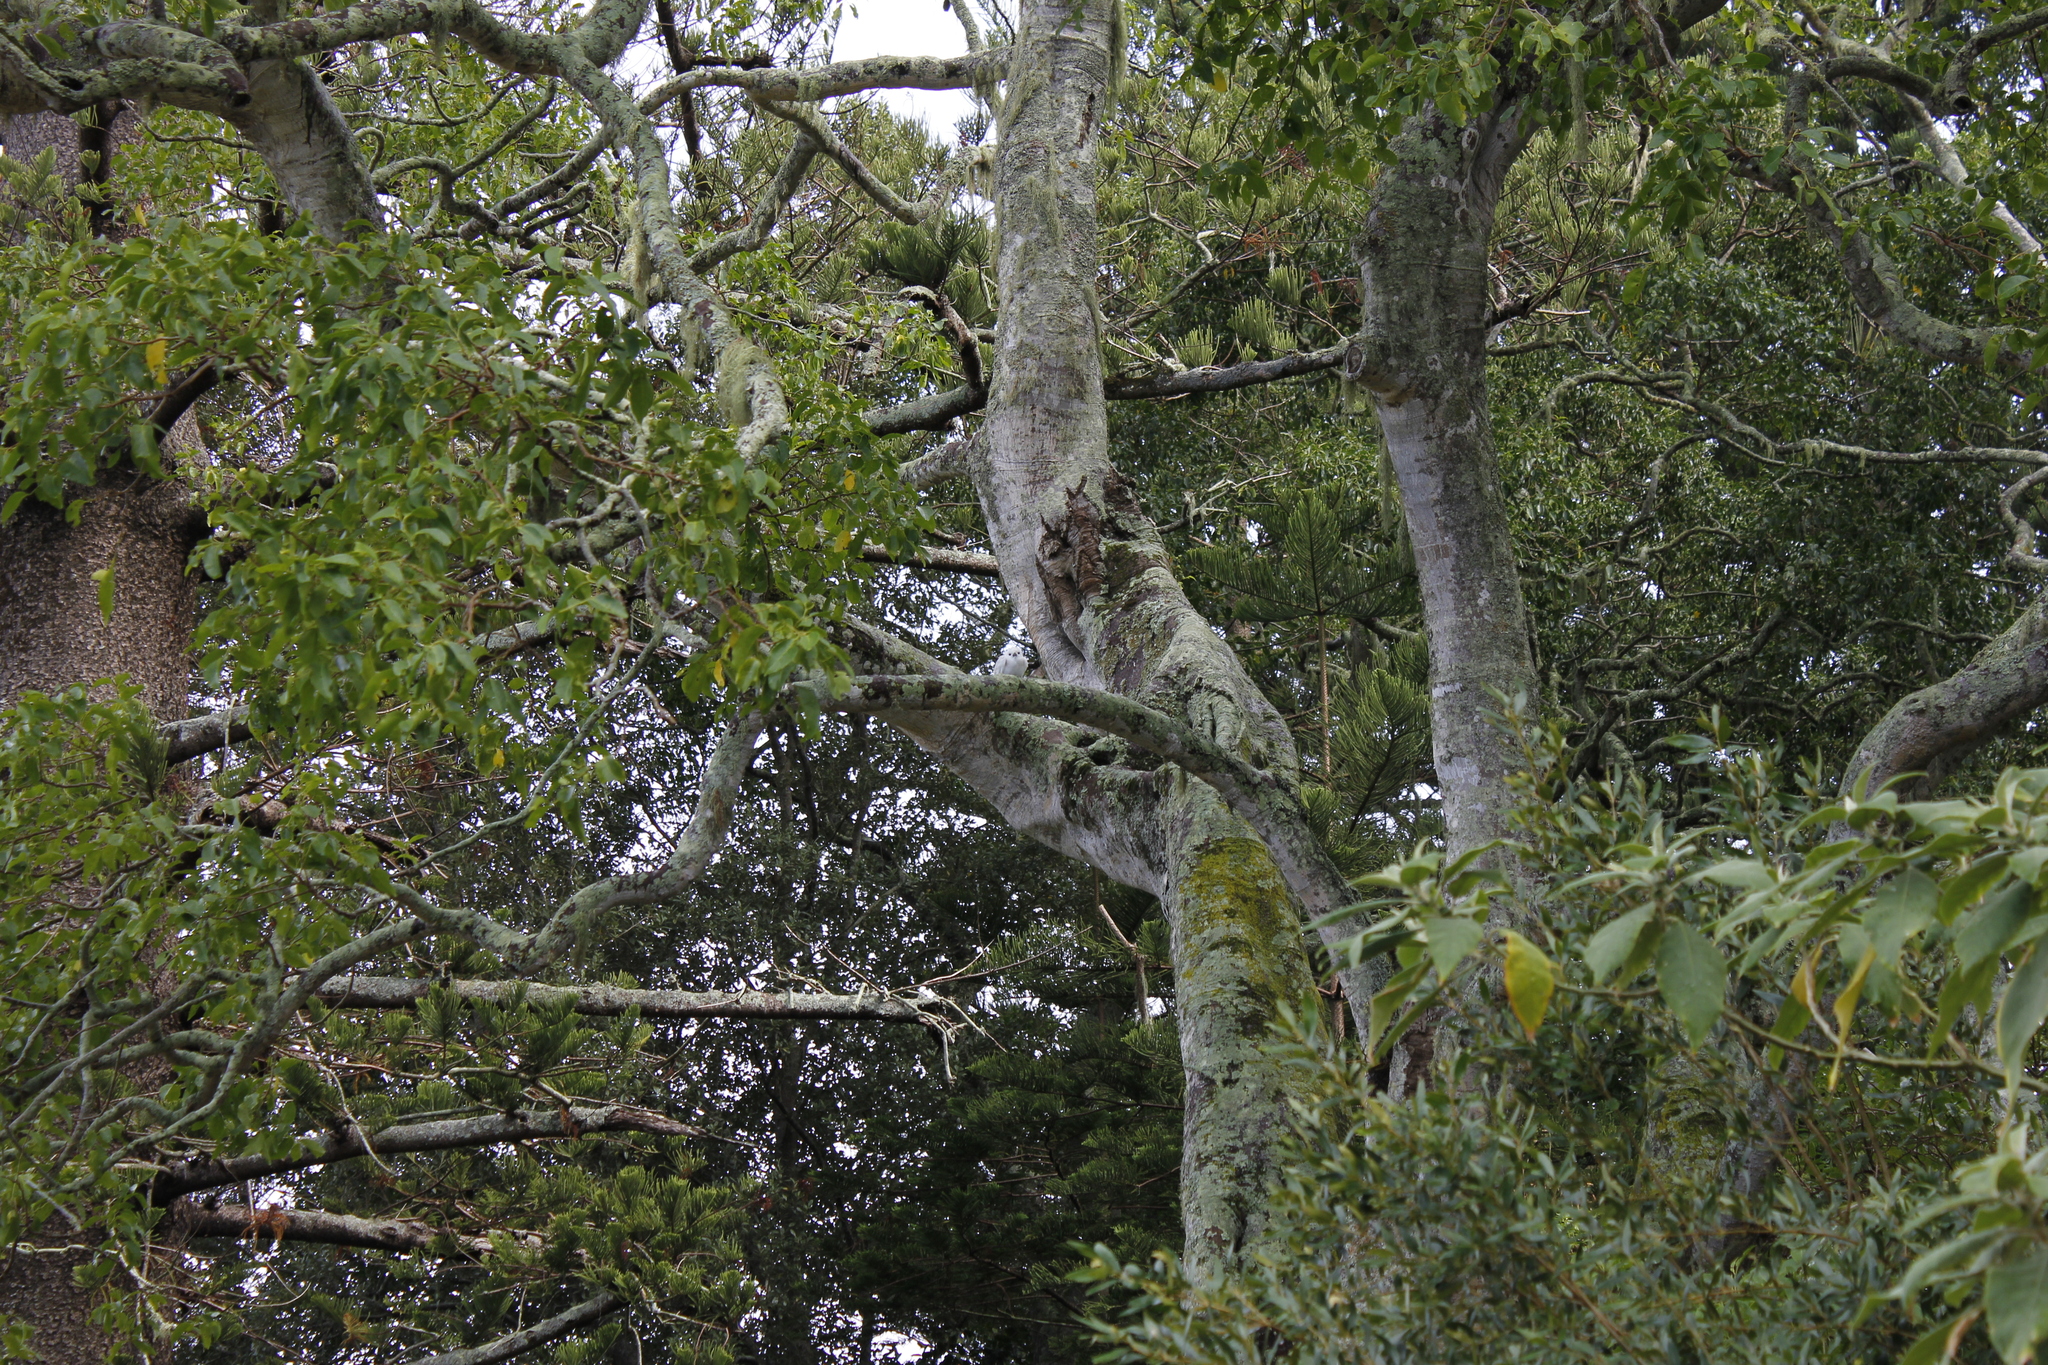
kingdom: Animalia
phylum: Chordata
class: Aves
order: Charadriiformes
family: Laridae
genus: Gygis
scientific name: Gygis alba
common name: White tern
